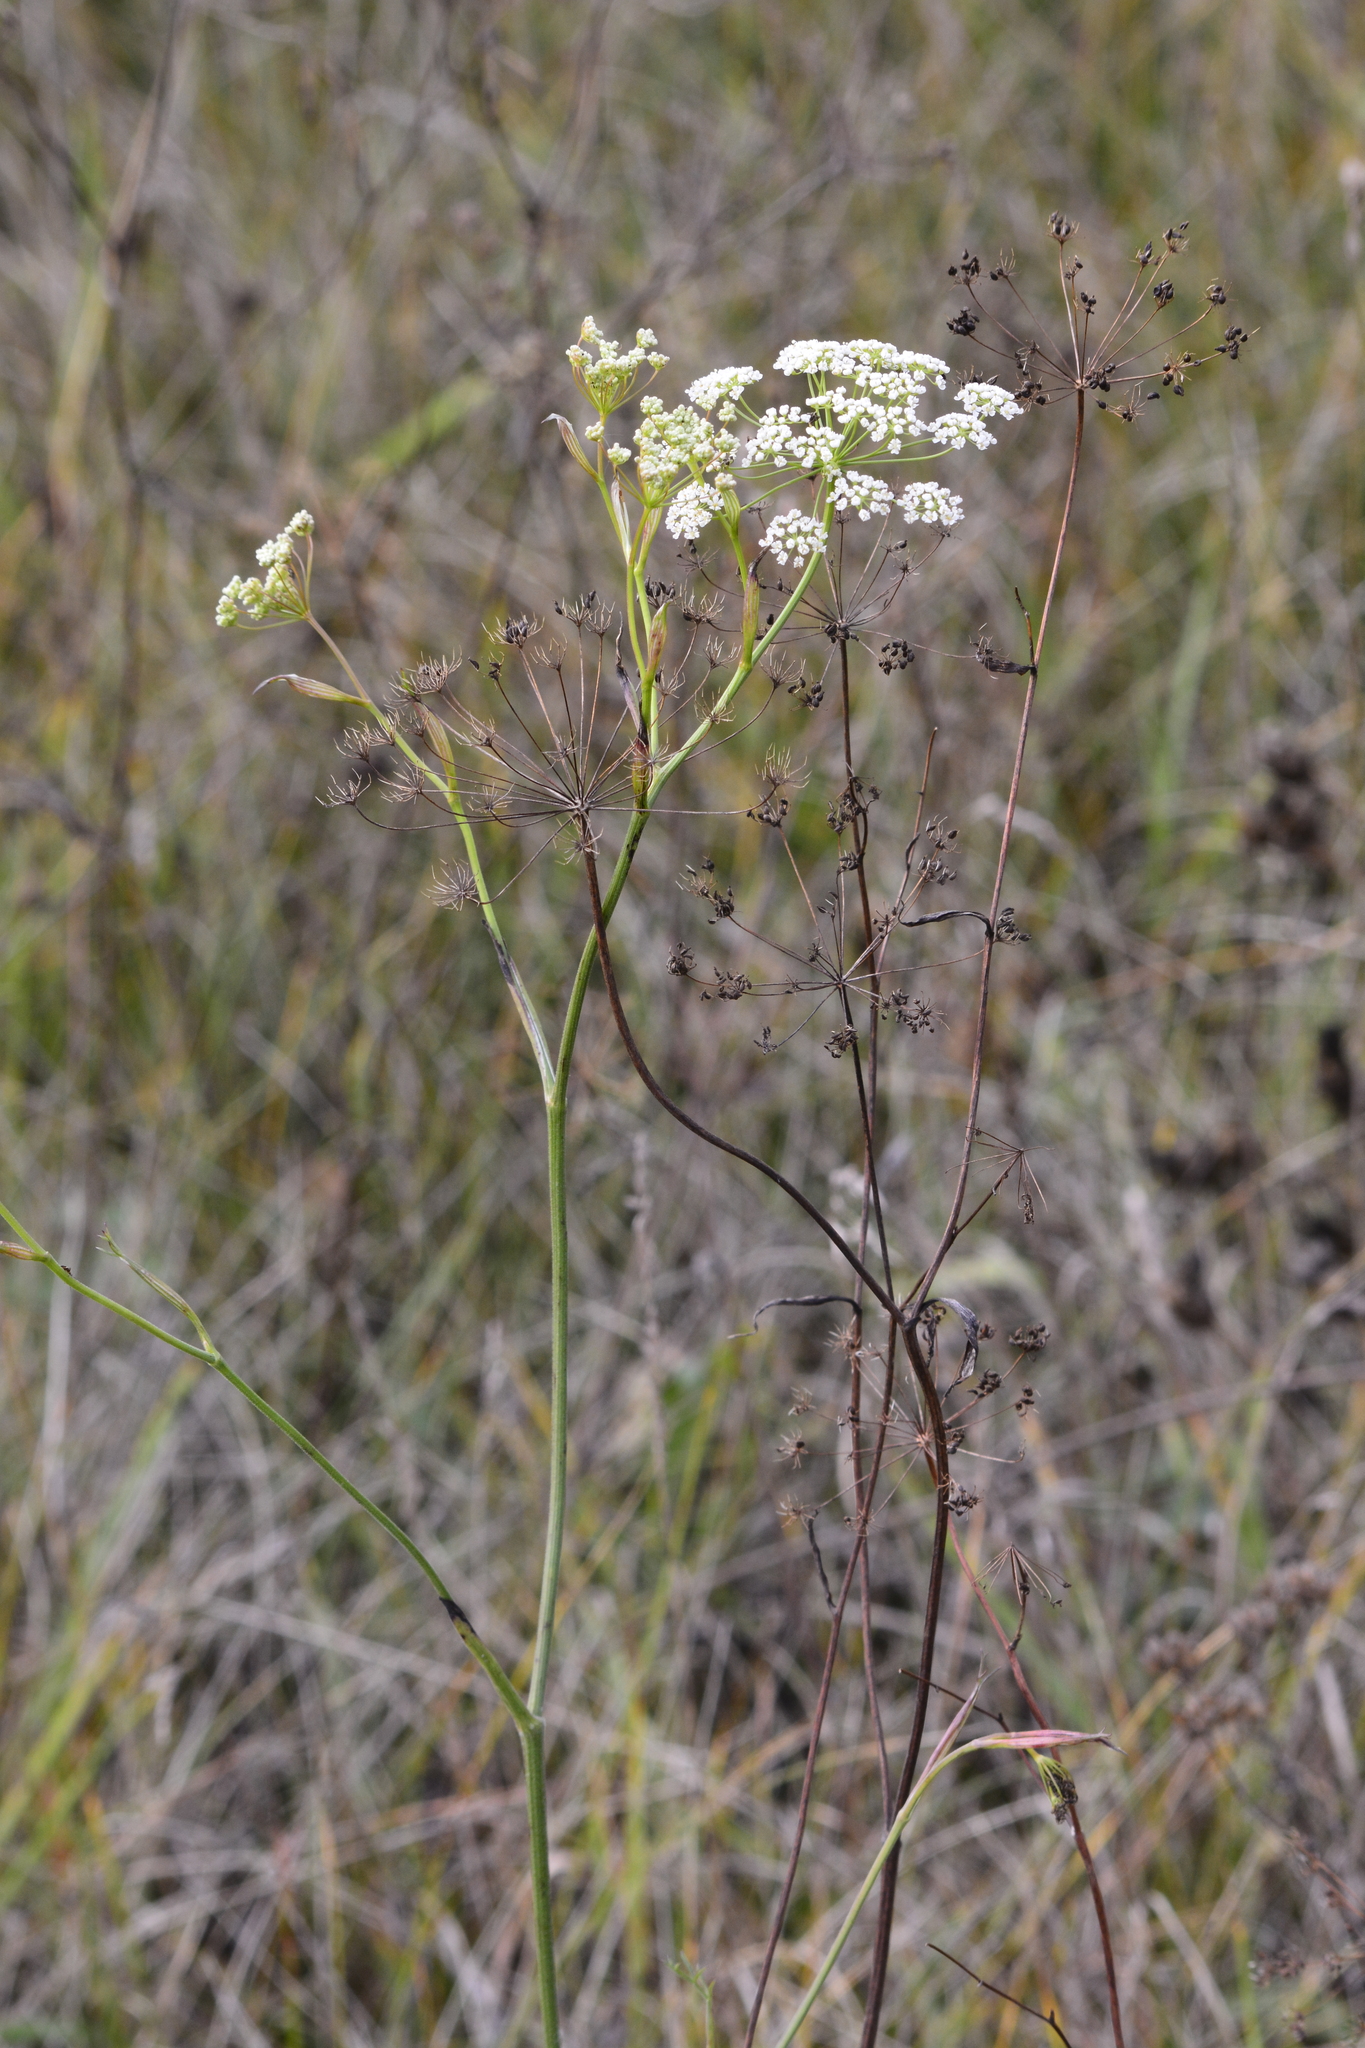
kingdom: Plantae
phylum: Tracheophyta
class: Magnoliopsida
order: Apiales
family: Apiaceae
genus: Pimpinella
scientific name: Pimpinella saxifraga
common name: Burnet-saxifrage
